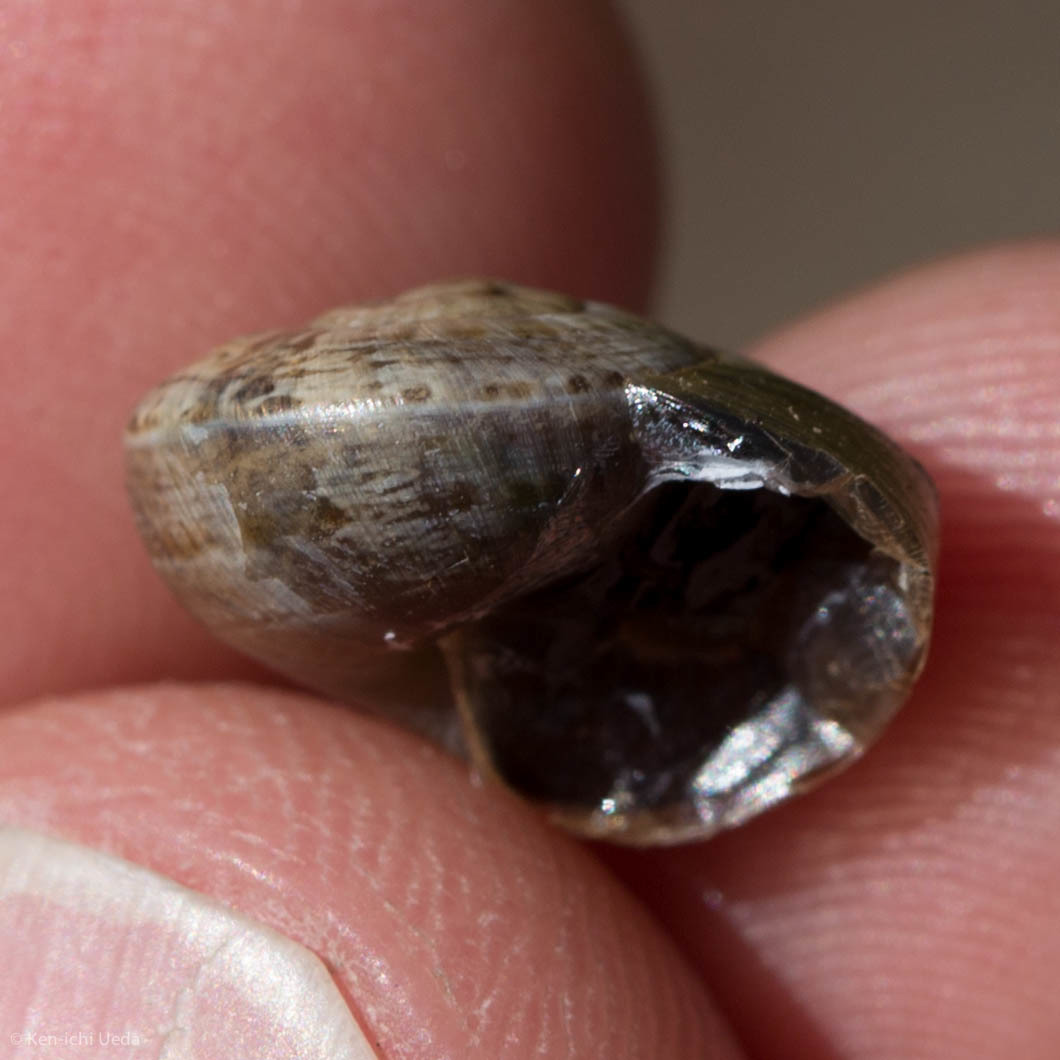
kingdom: Animalia
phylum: Mollusca
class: Gastropoda
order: Stylommatophora
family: Helicidae
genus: Otala
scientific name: Otala lactea
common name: Milk snail
